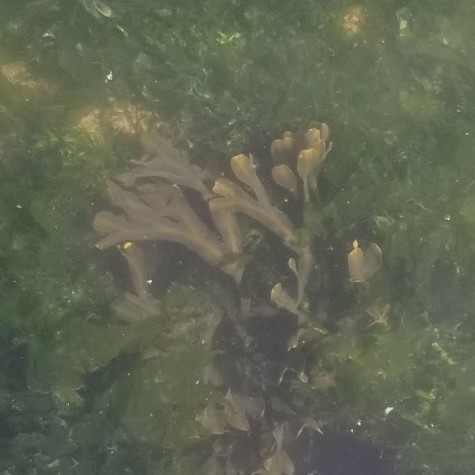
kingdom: Chromista
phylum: Ochrophyta
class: Phaeophyceae
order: Fucales
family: Fucaceae
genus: Fucus
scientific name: Fucus distichus
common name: Rockweed
